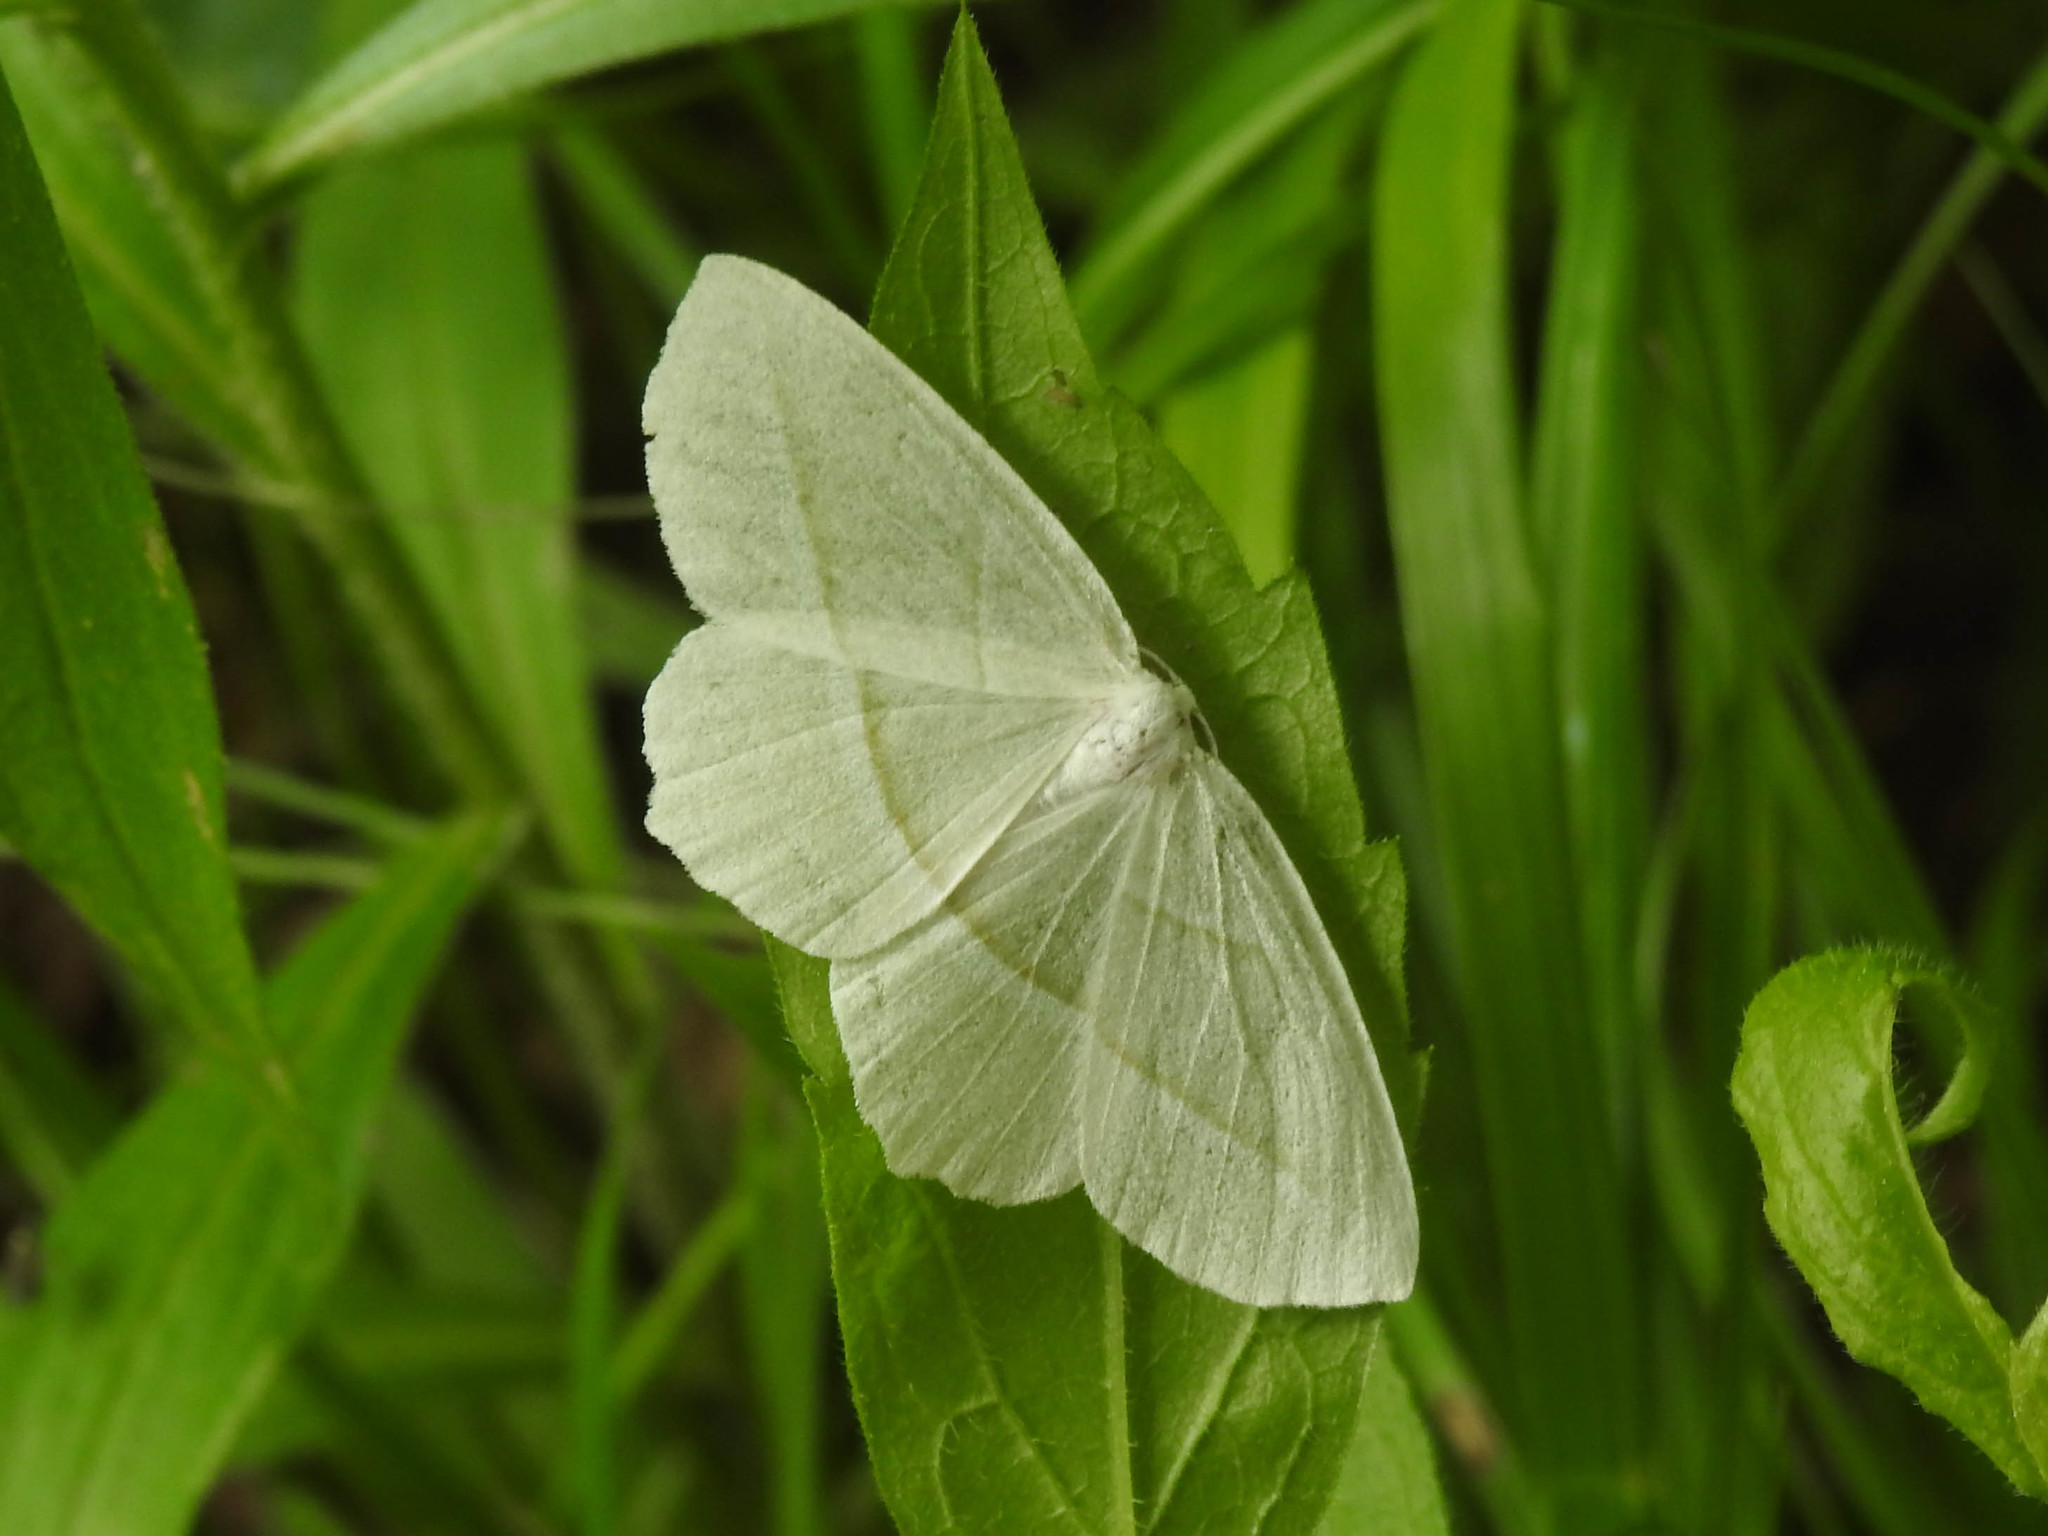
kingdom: Animalia
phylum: Arthropoda
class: Insecta
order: Lepidoptera
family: Geometridae
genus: Campaea
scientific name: Campaea perlata
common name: Fringed looper
